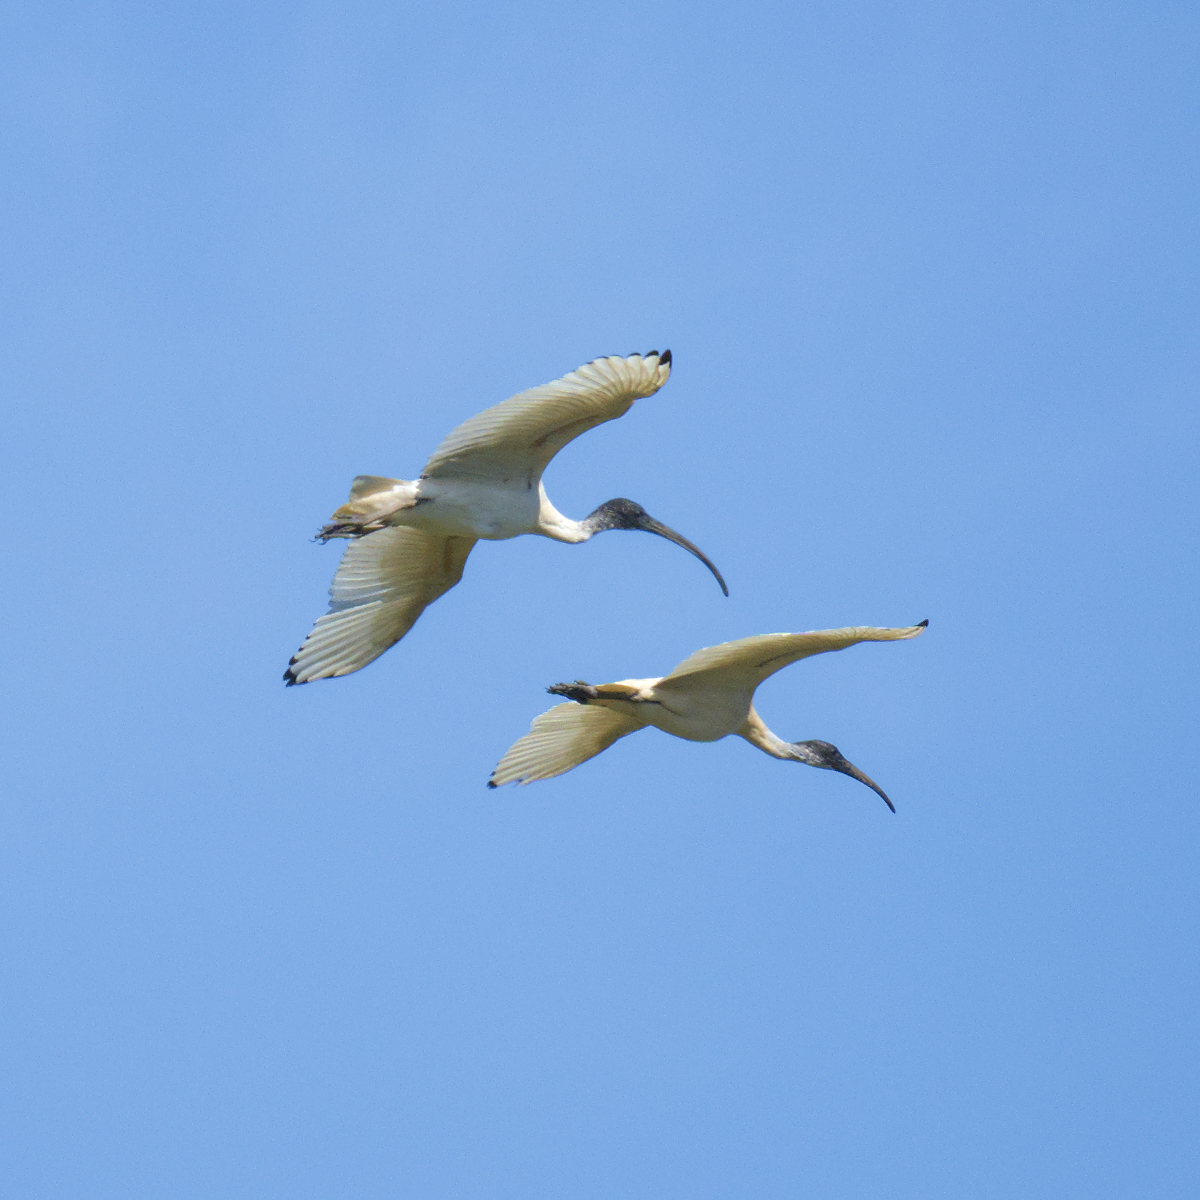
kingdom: Animalia
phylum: Chordata
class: Aves
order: Pelecaniformes
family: Threskiornithidae
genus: Threskiornis
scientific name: Threskiornis molucca
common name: Australian white ibis
